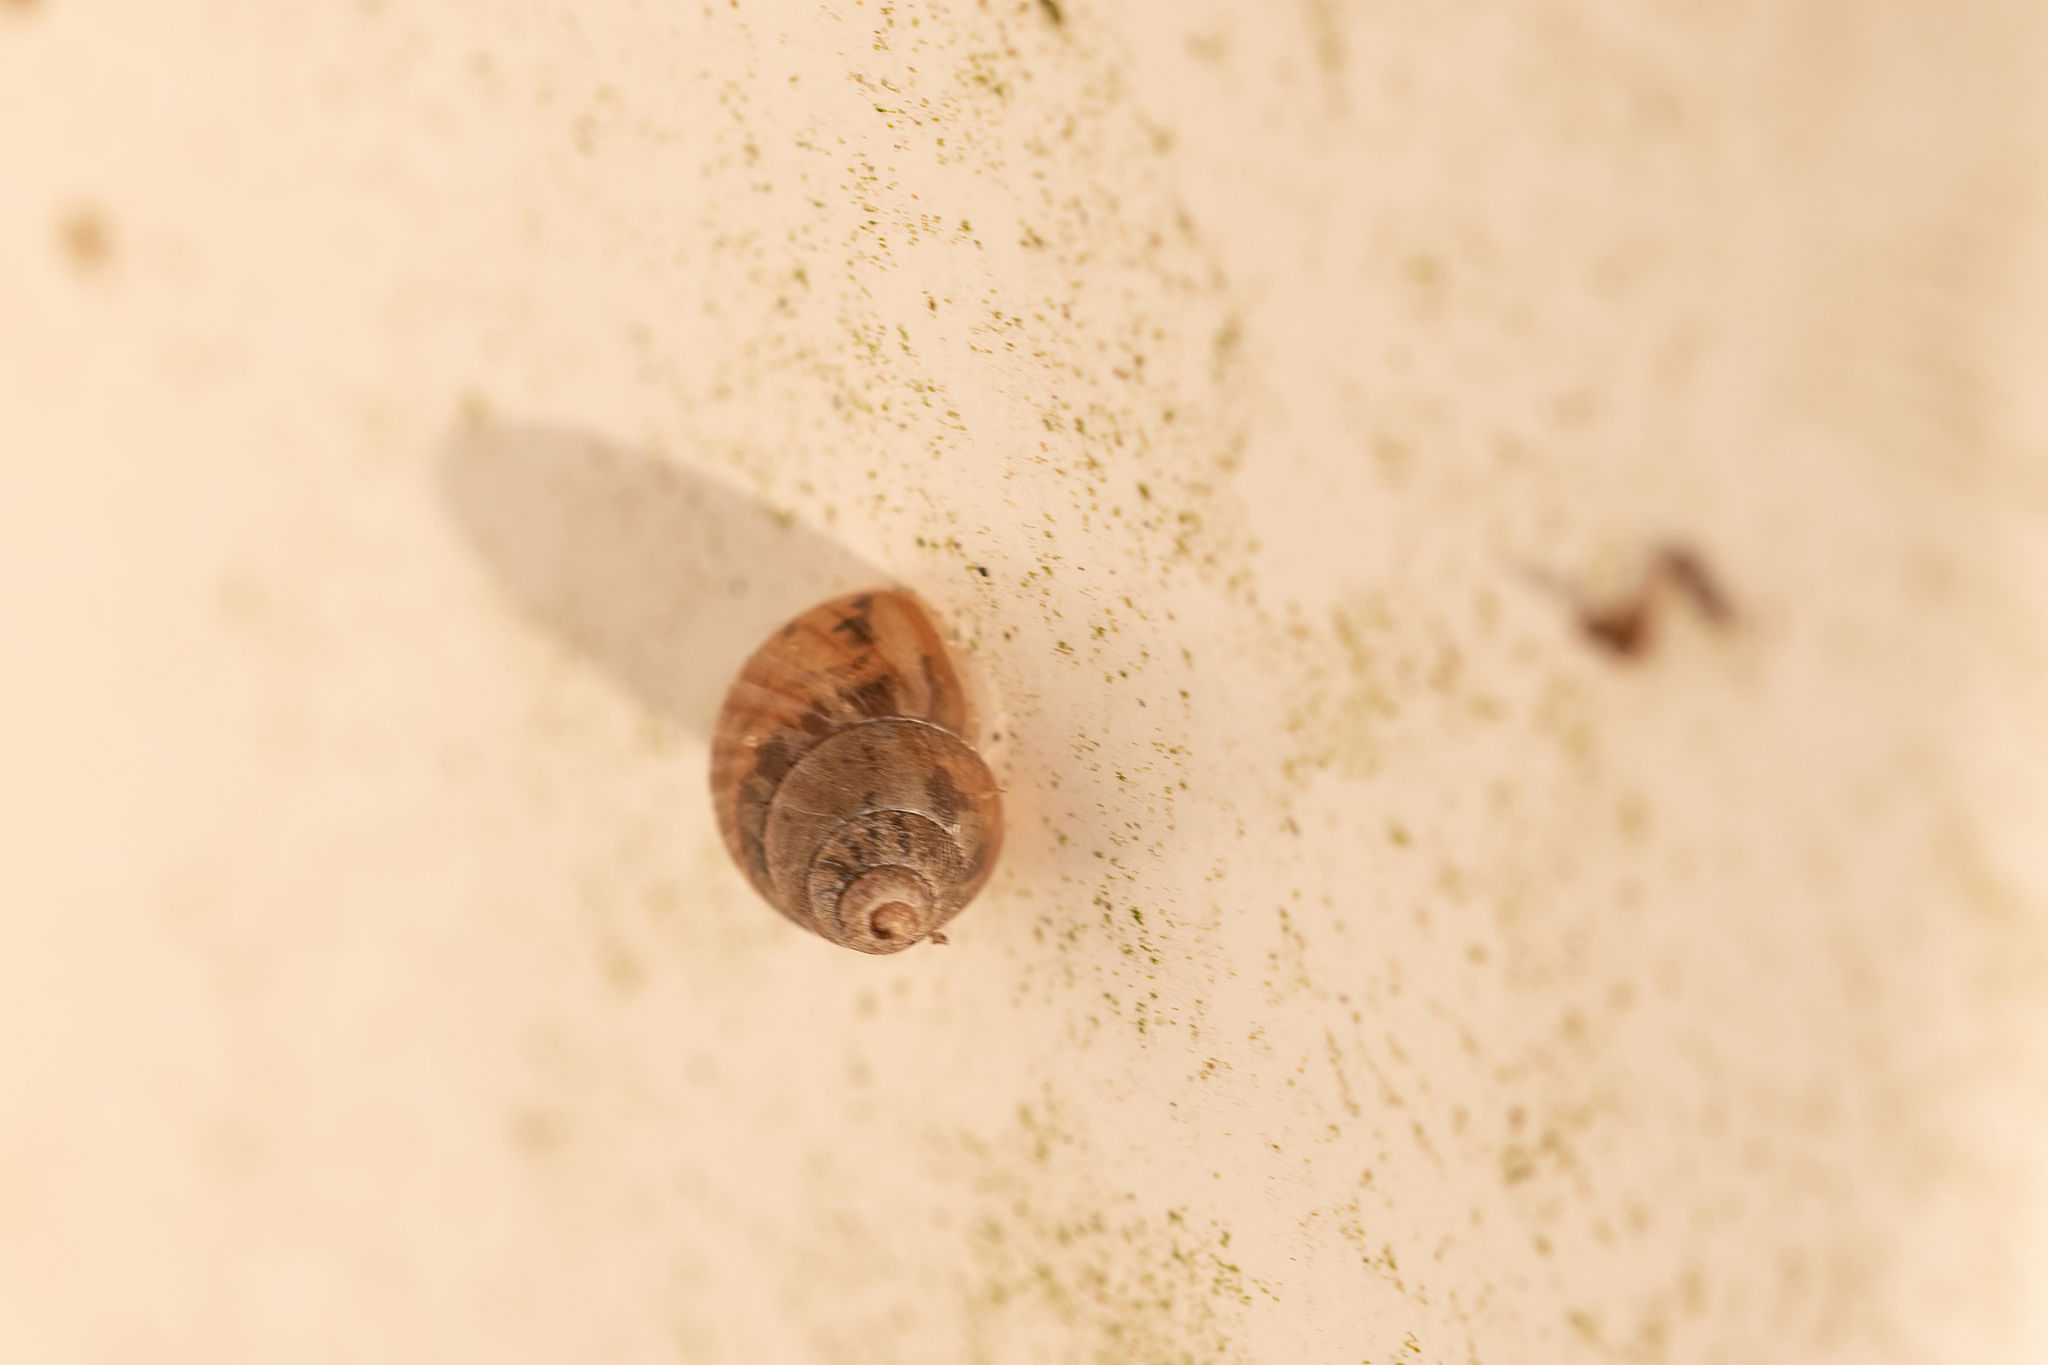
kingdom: Animalia
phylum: Mollusca
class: Gastropoda
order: Stylommatophora
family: Bulimulidae
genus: Bulimulus
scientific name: Bulimulus bonariensis
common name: Snail
